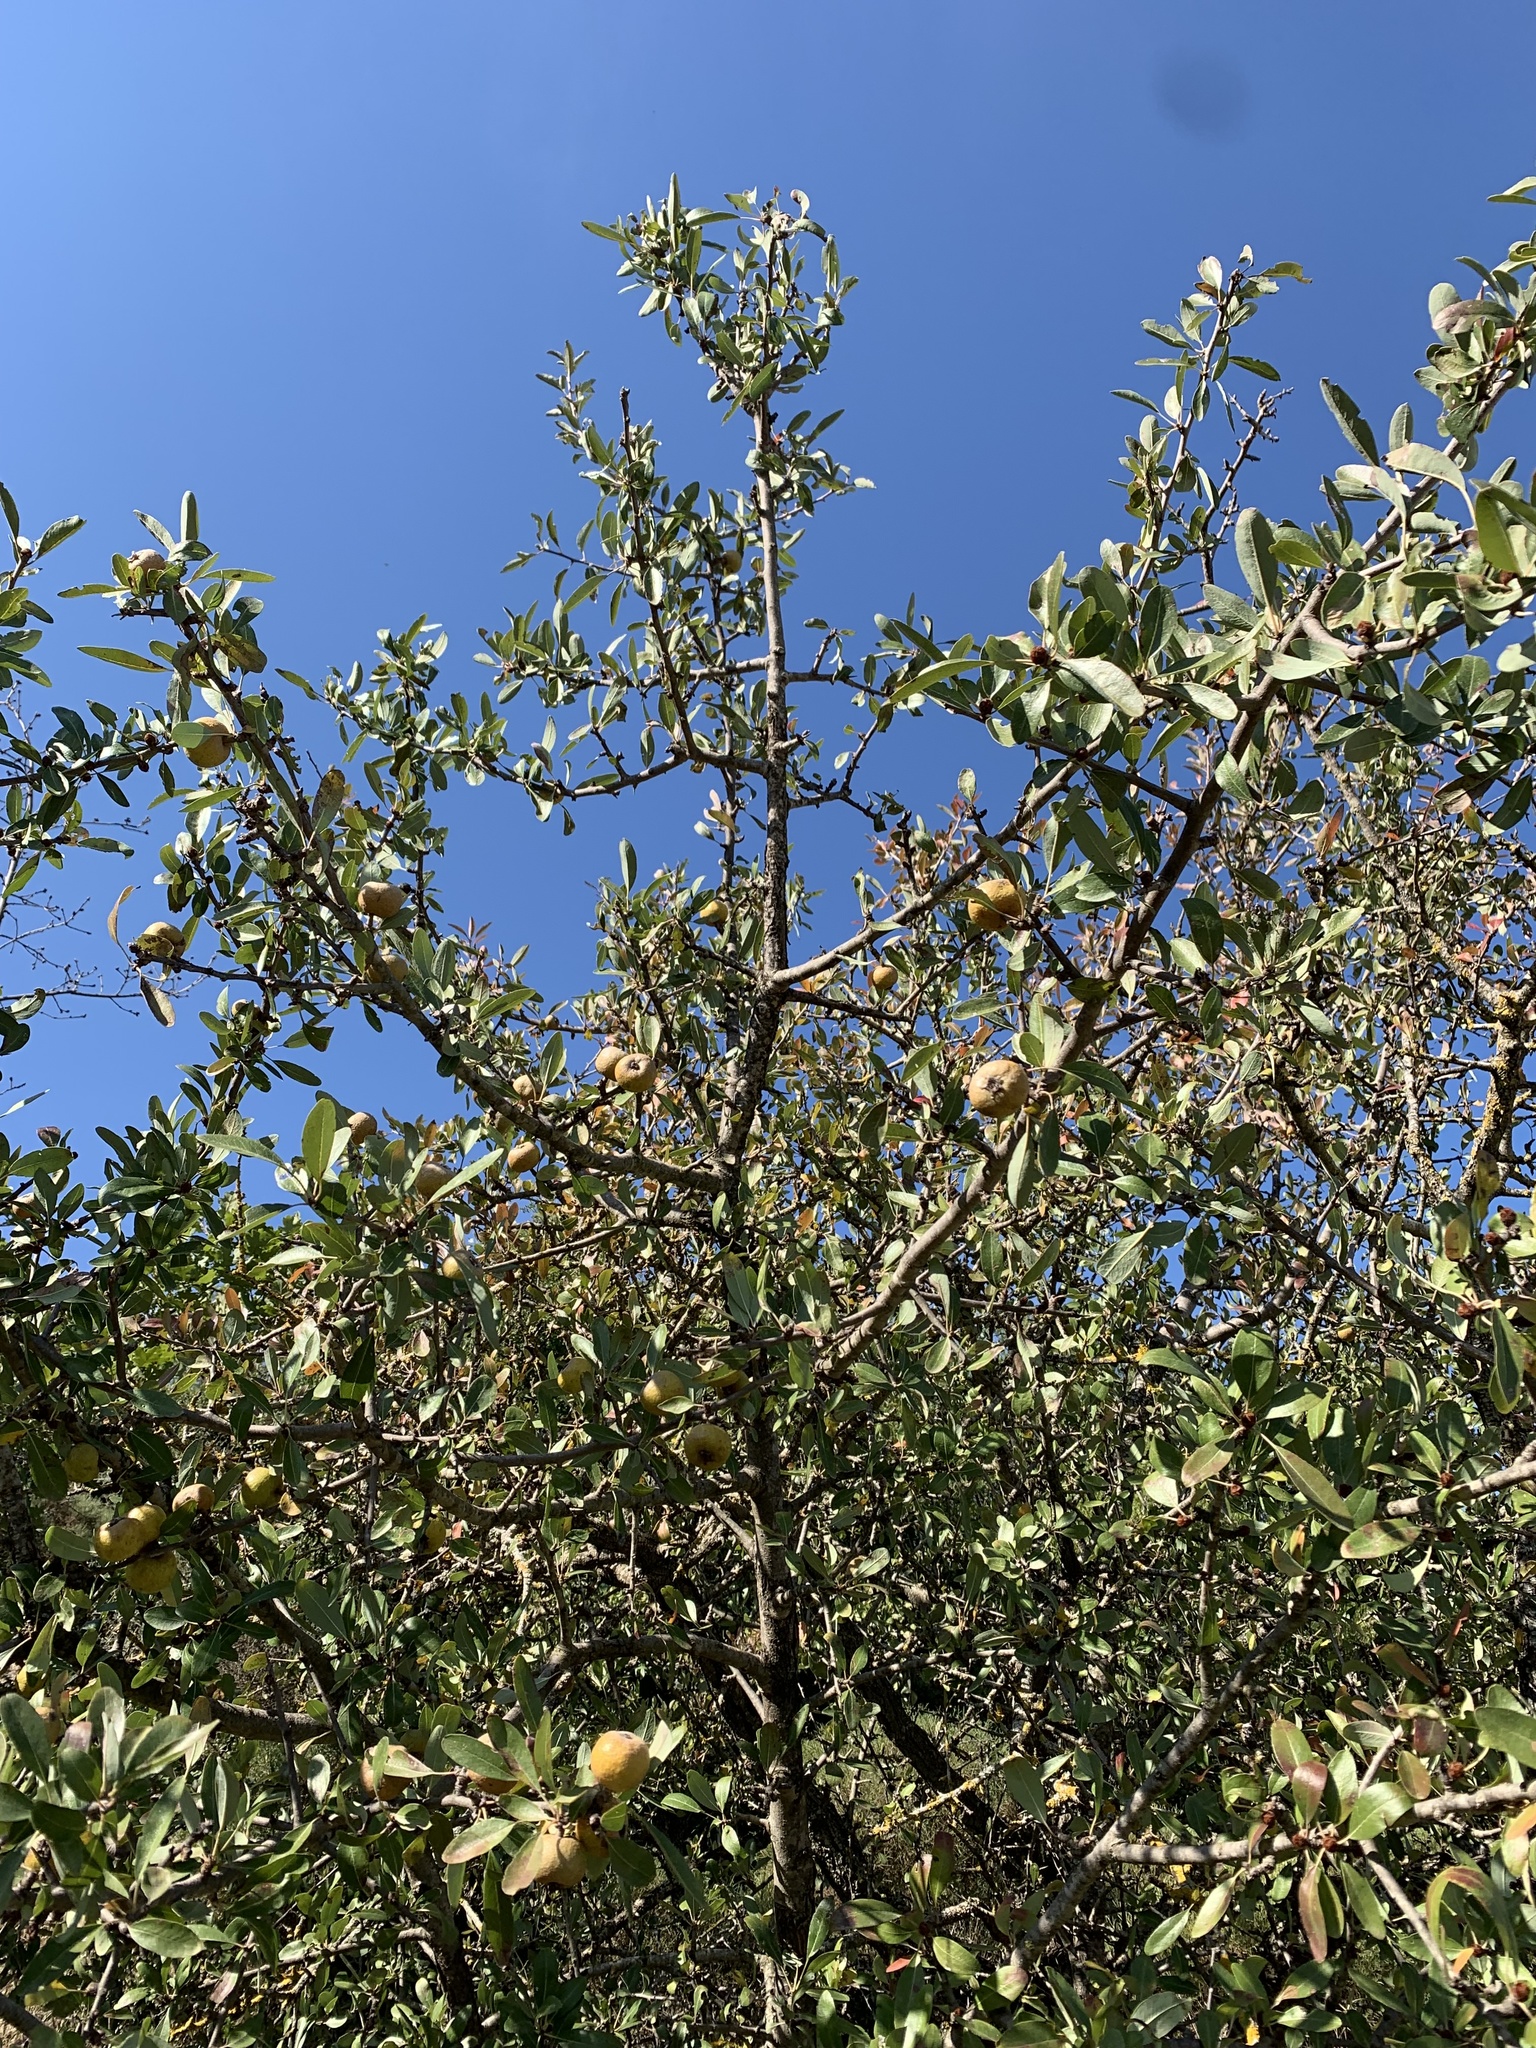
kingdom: Plantae
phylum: Tracheophyta
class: Magnoliopsida
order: Rosales
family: Rosaceae
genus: Pyrus
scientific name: Pyrus spinosa
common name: Almond-leaf pear
